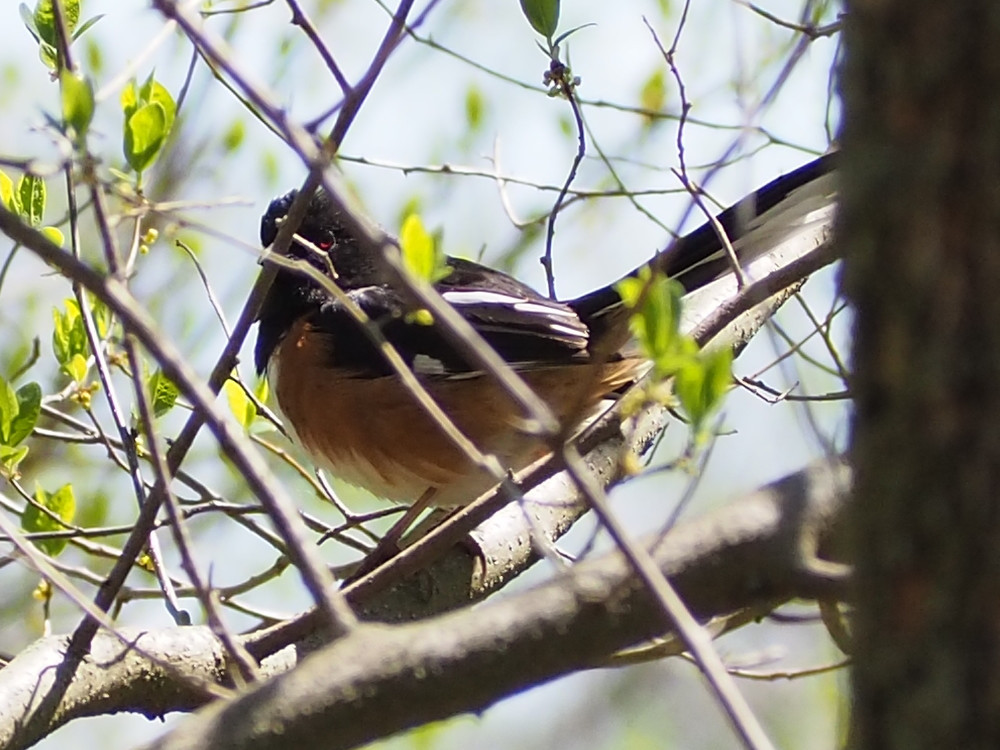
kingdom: Animalia
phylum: Chordata
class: Aves
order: Passeriformes
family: Passerellidae
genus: Pipilo
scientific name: Pipilo erythrophthalmus
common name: Eastern towhee
